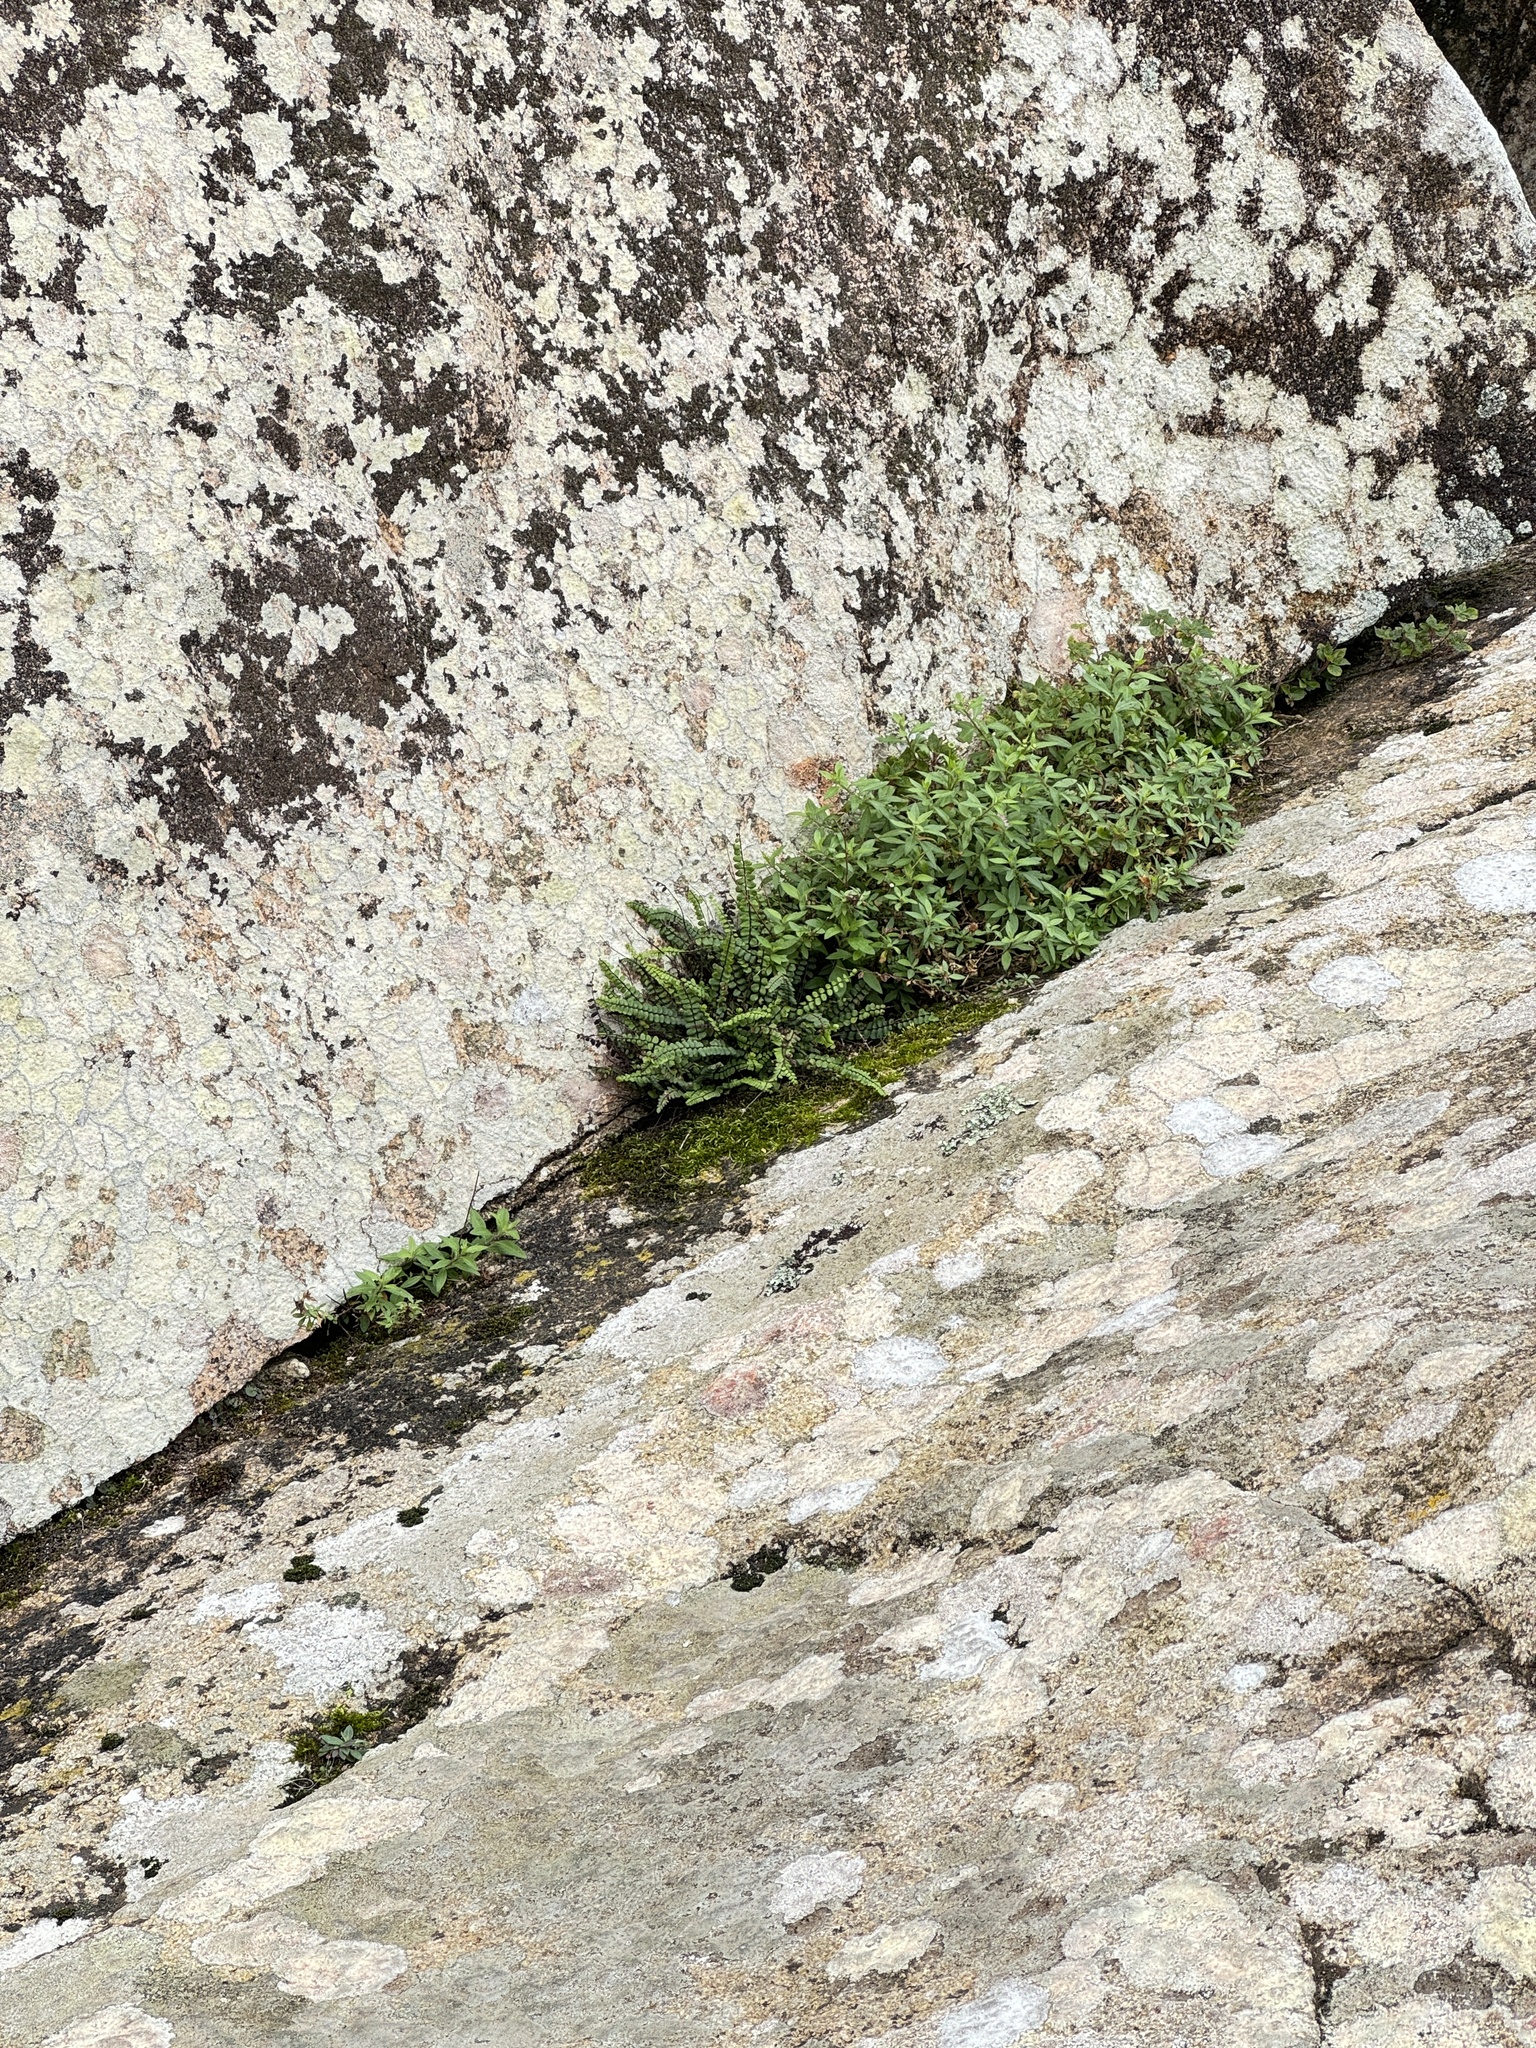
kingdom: Plantae
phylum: Tracheophyta
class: Polypodiopsida
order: Polypodiales
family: Aspleniaceae
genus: Asplenium
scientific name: Asplenium trichomanes
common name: Maidenhair spleenwort
